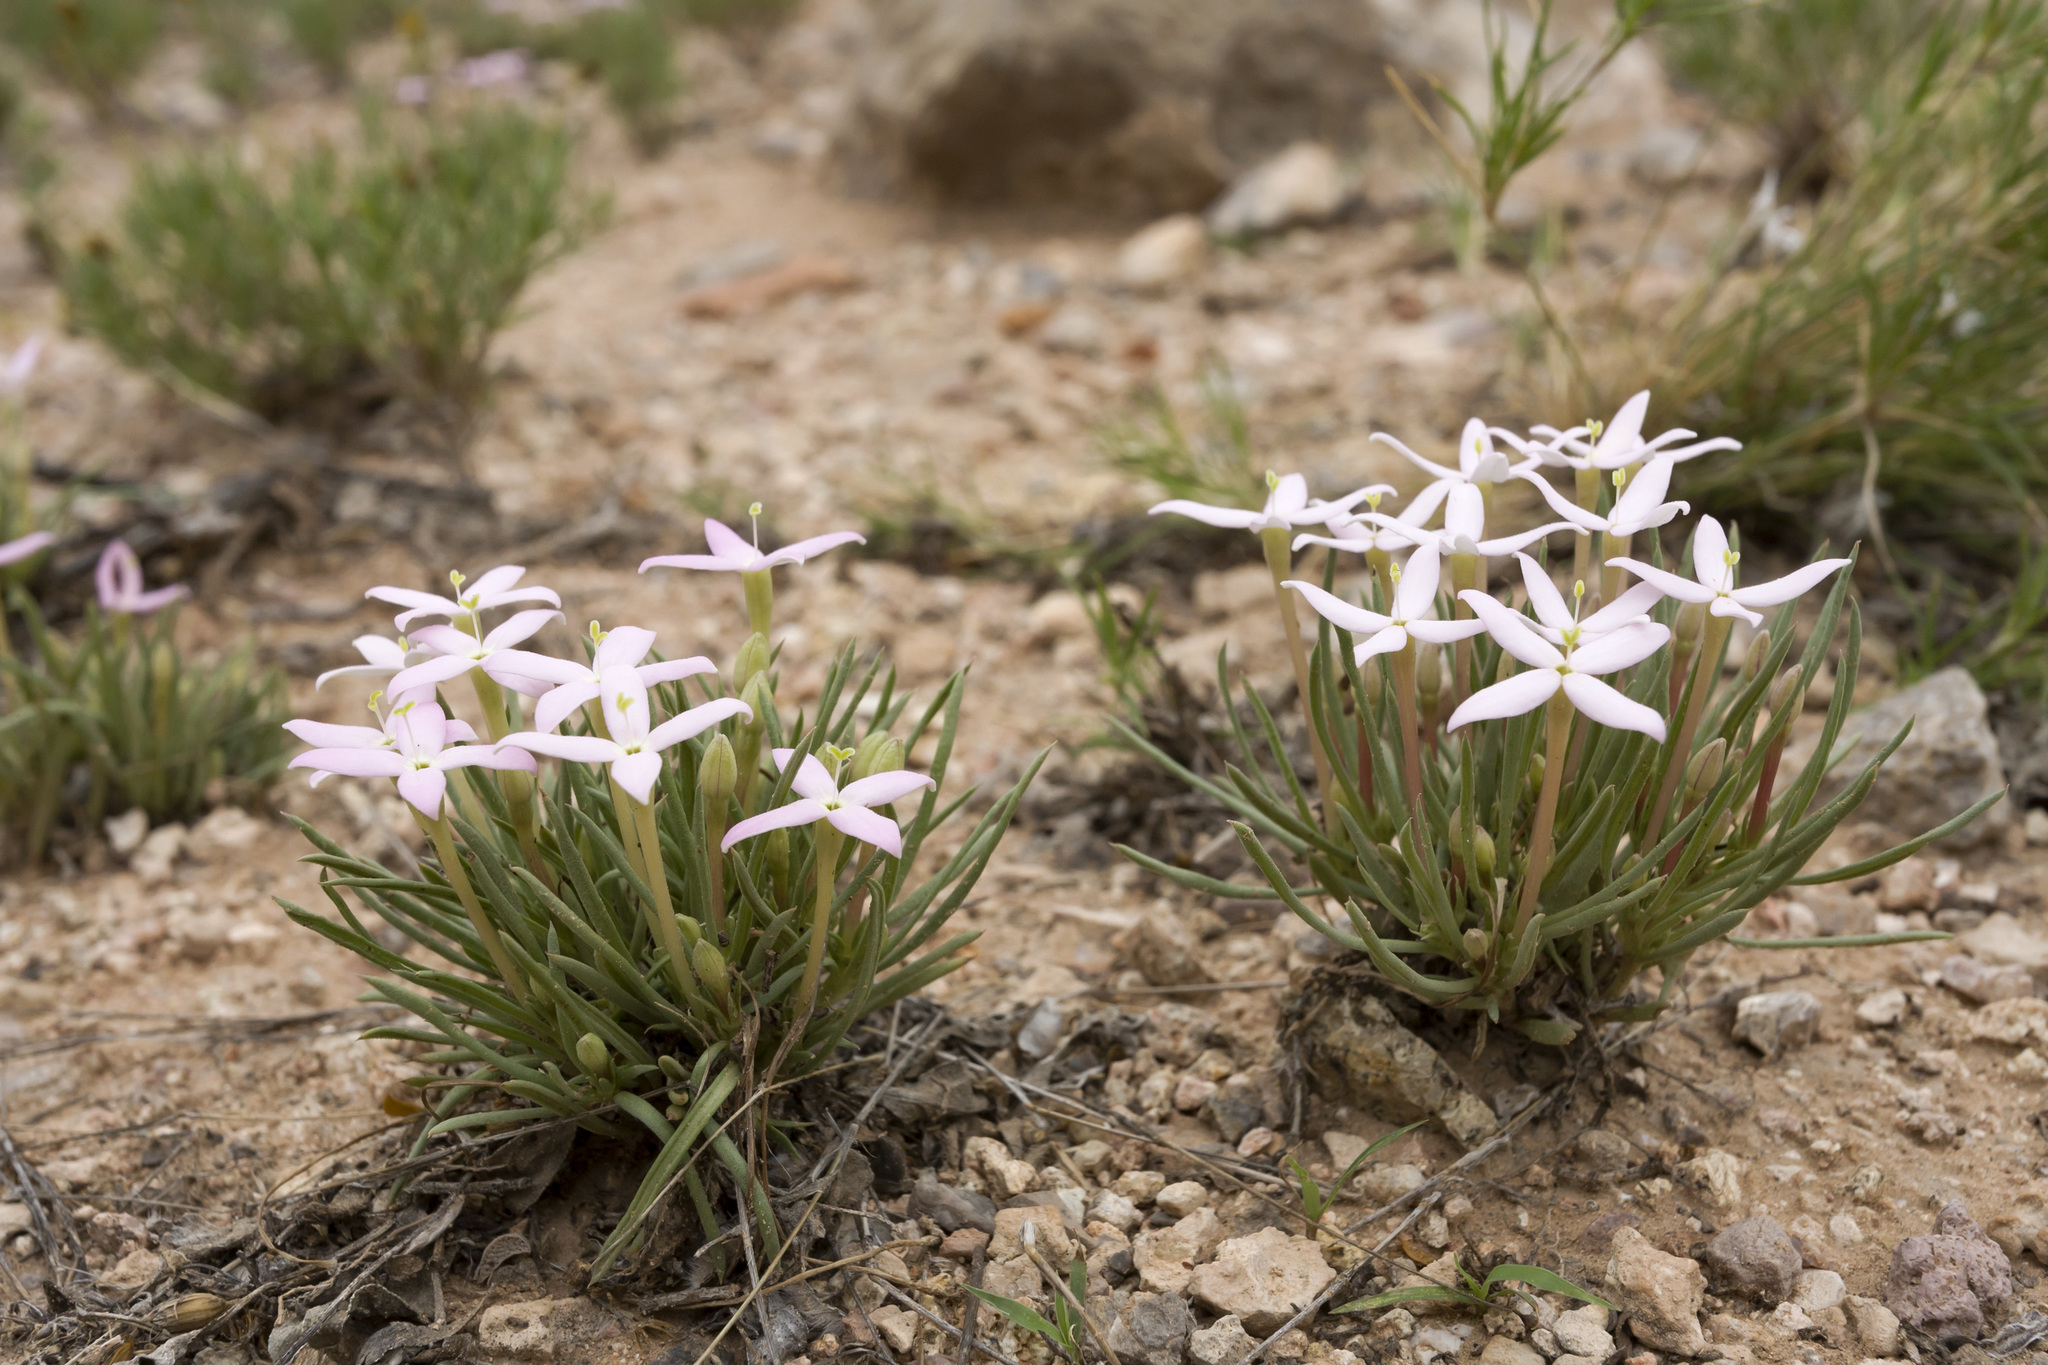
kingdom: Plantae
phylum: Tracheophyta
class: Magnoliopsida
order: Gentianales
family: Rubiaceae
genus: Houstonia
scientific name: Houstonia rubra
